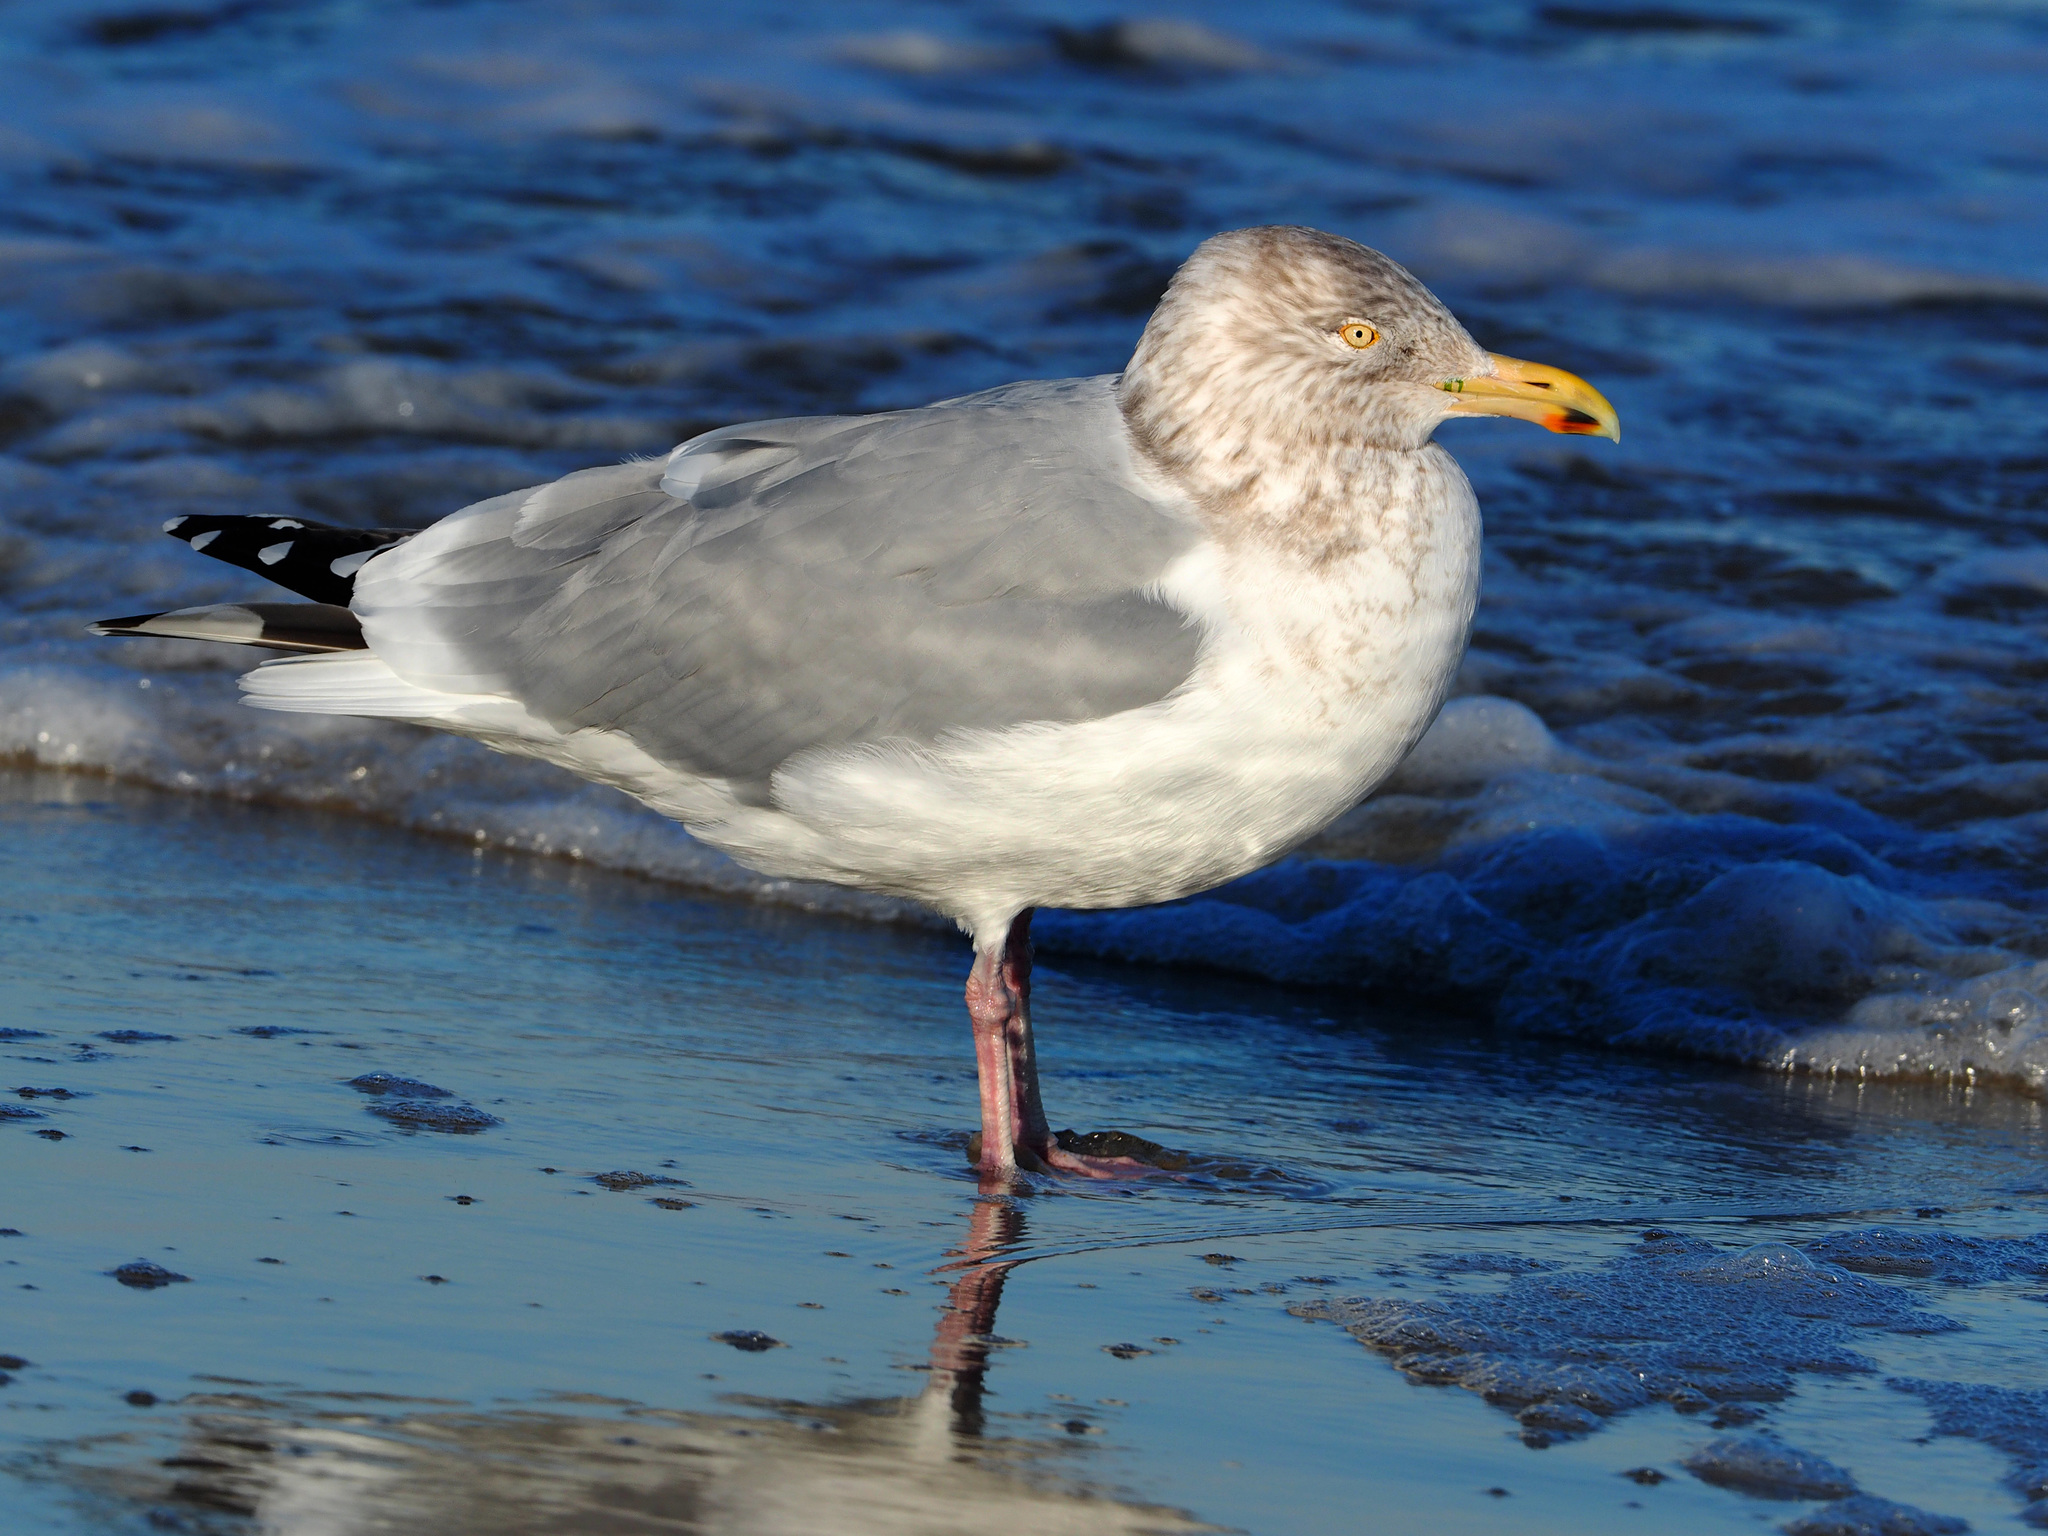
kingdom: Animalia
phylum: Chordata
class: Aves
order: Charadriiformes
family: Laridae
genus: Larus
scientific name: Larus argentatus
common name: Herring gull
